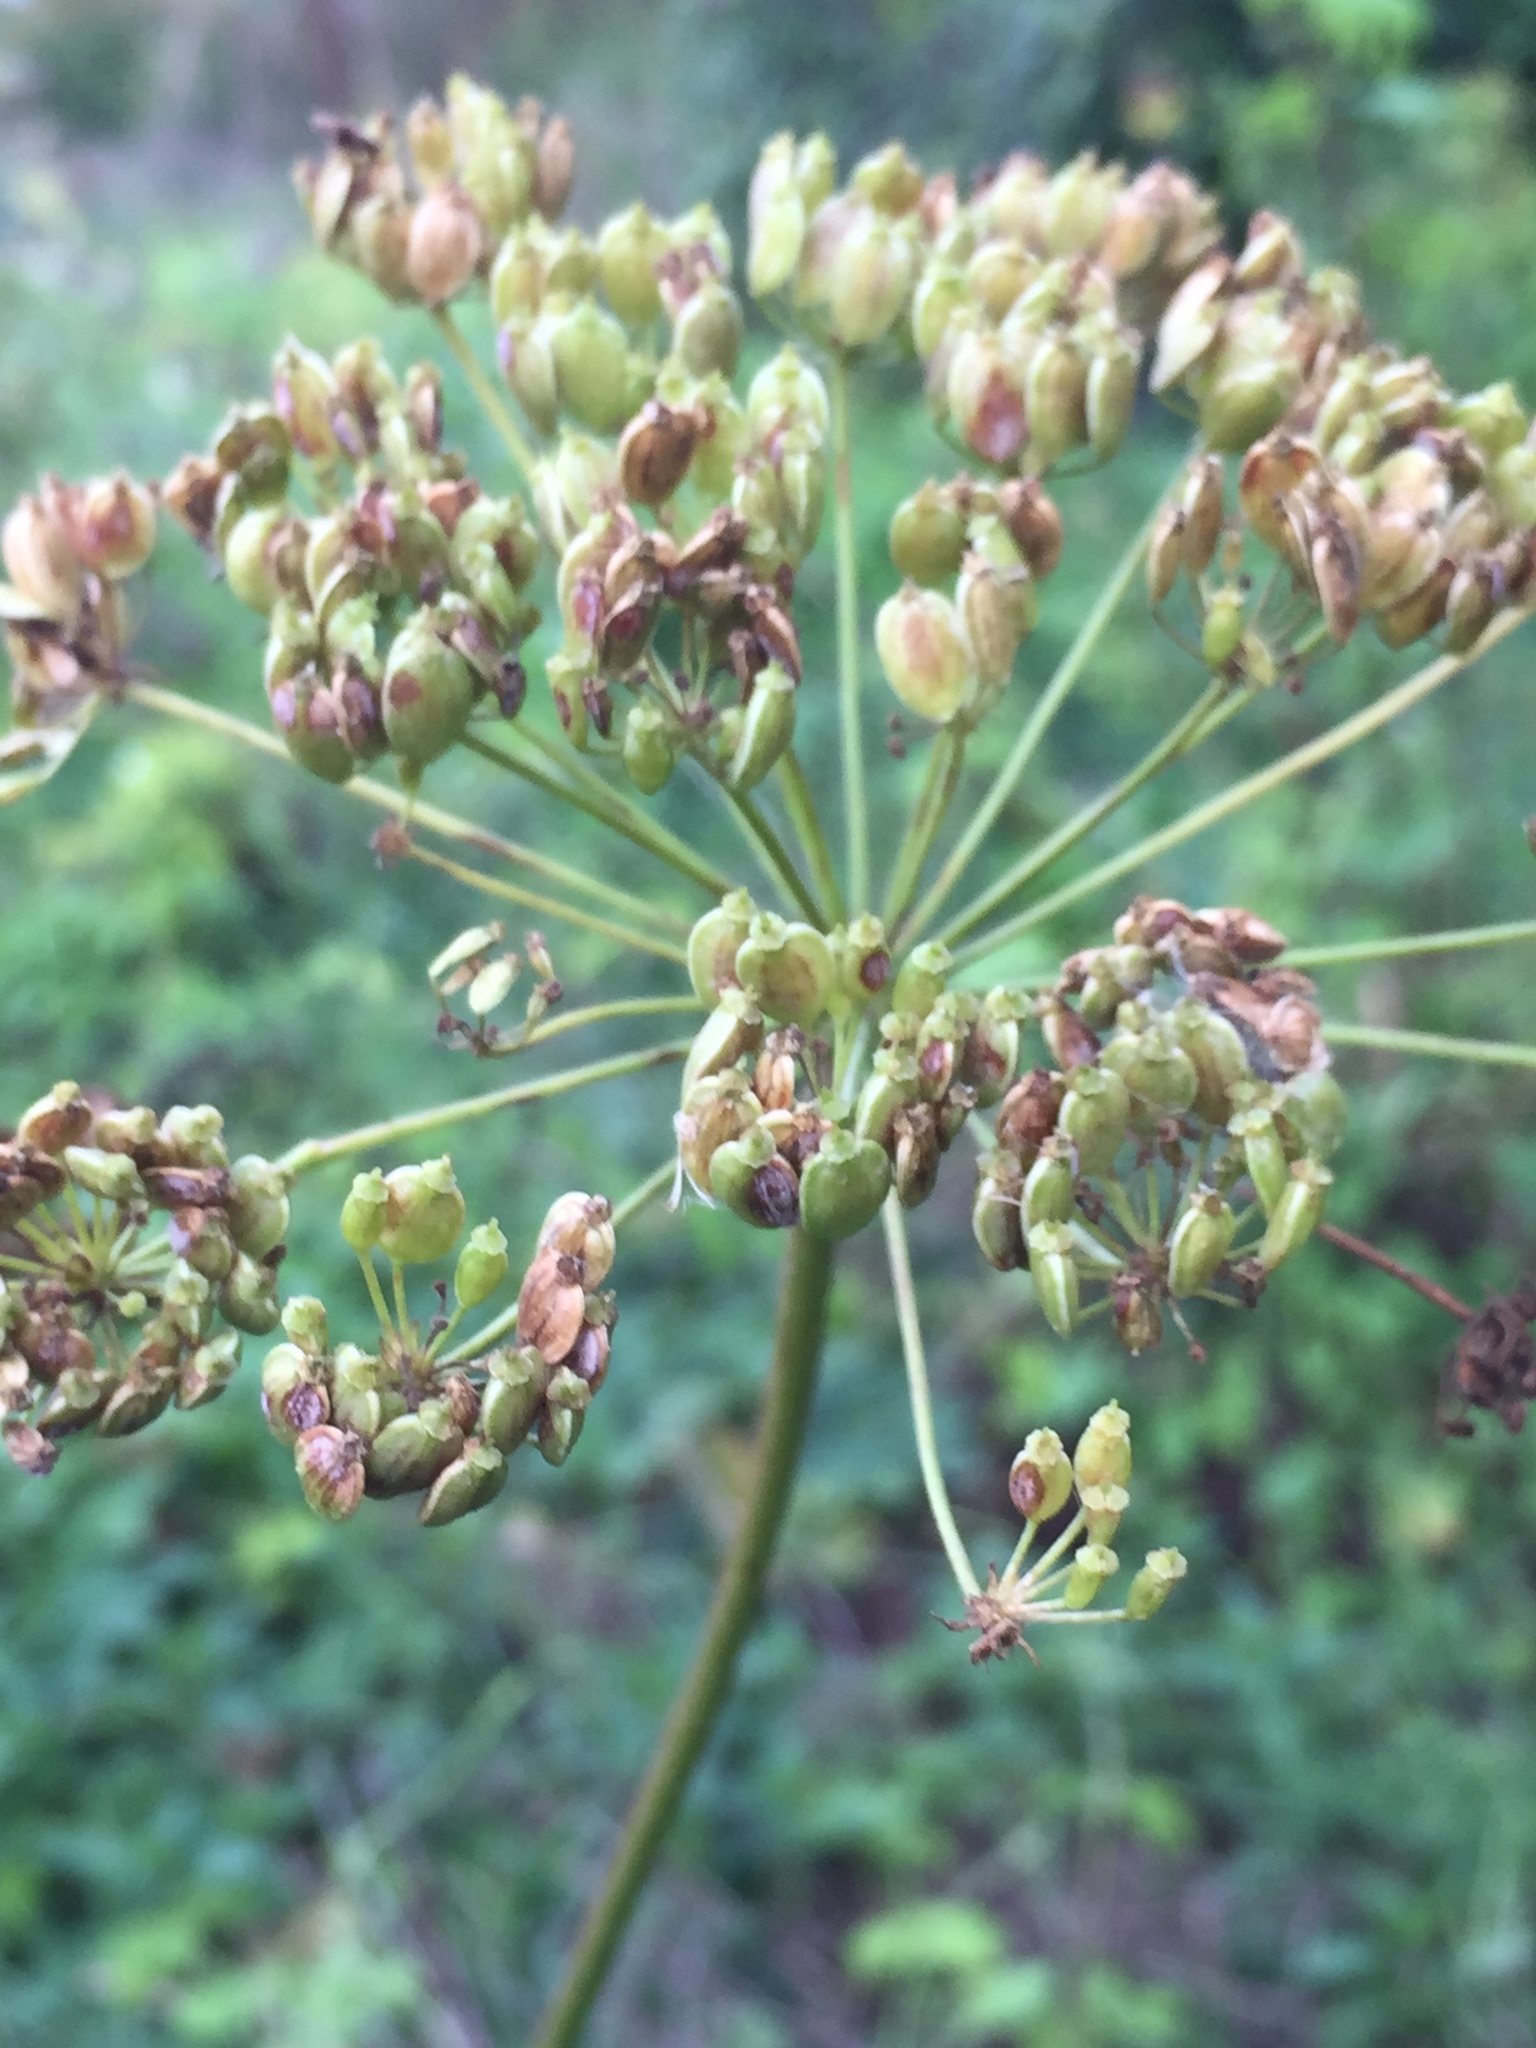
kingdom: Plantae
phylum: Tracheophyta
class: Magnoliopsida
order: Apiales
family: Apiaceae
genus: Heracleum
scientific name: Heracleum sphondylium
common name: Hogweed
